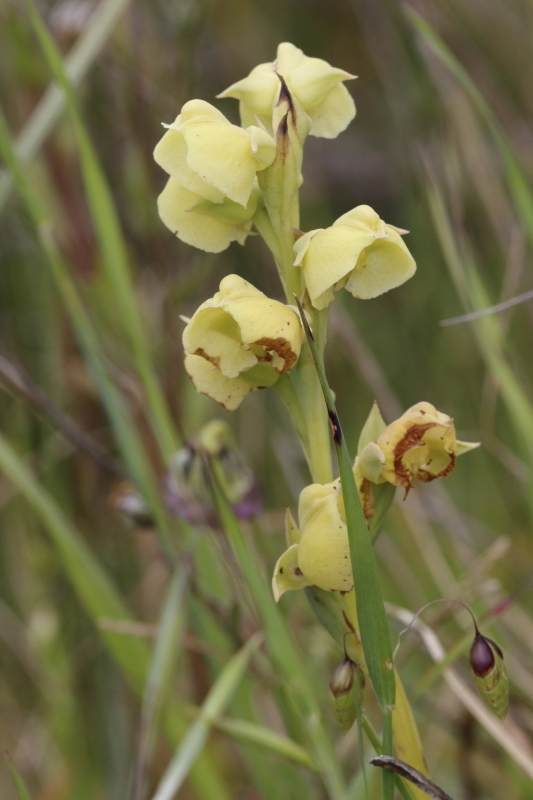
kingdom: Plantae
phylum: Tracheophyta
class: Liliopsida
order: Asparagales
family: Orchidaceae
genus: Pterygodium
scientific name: Pterygodium catholicum
